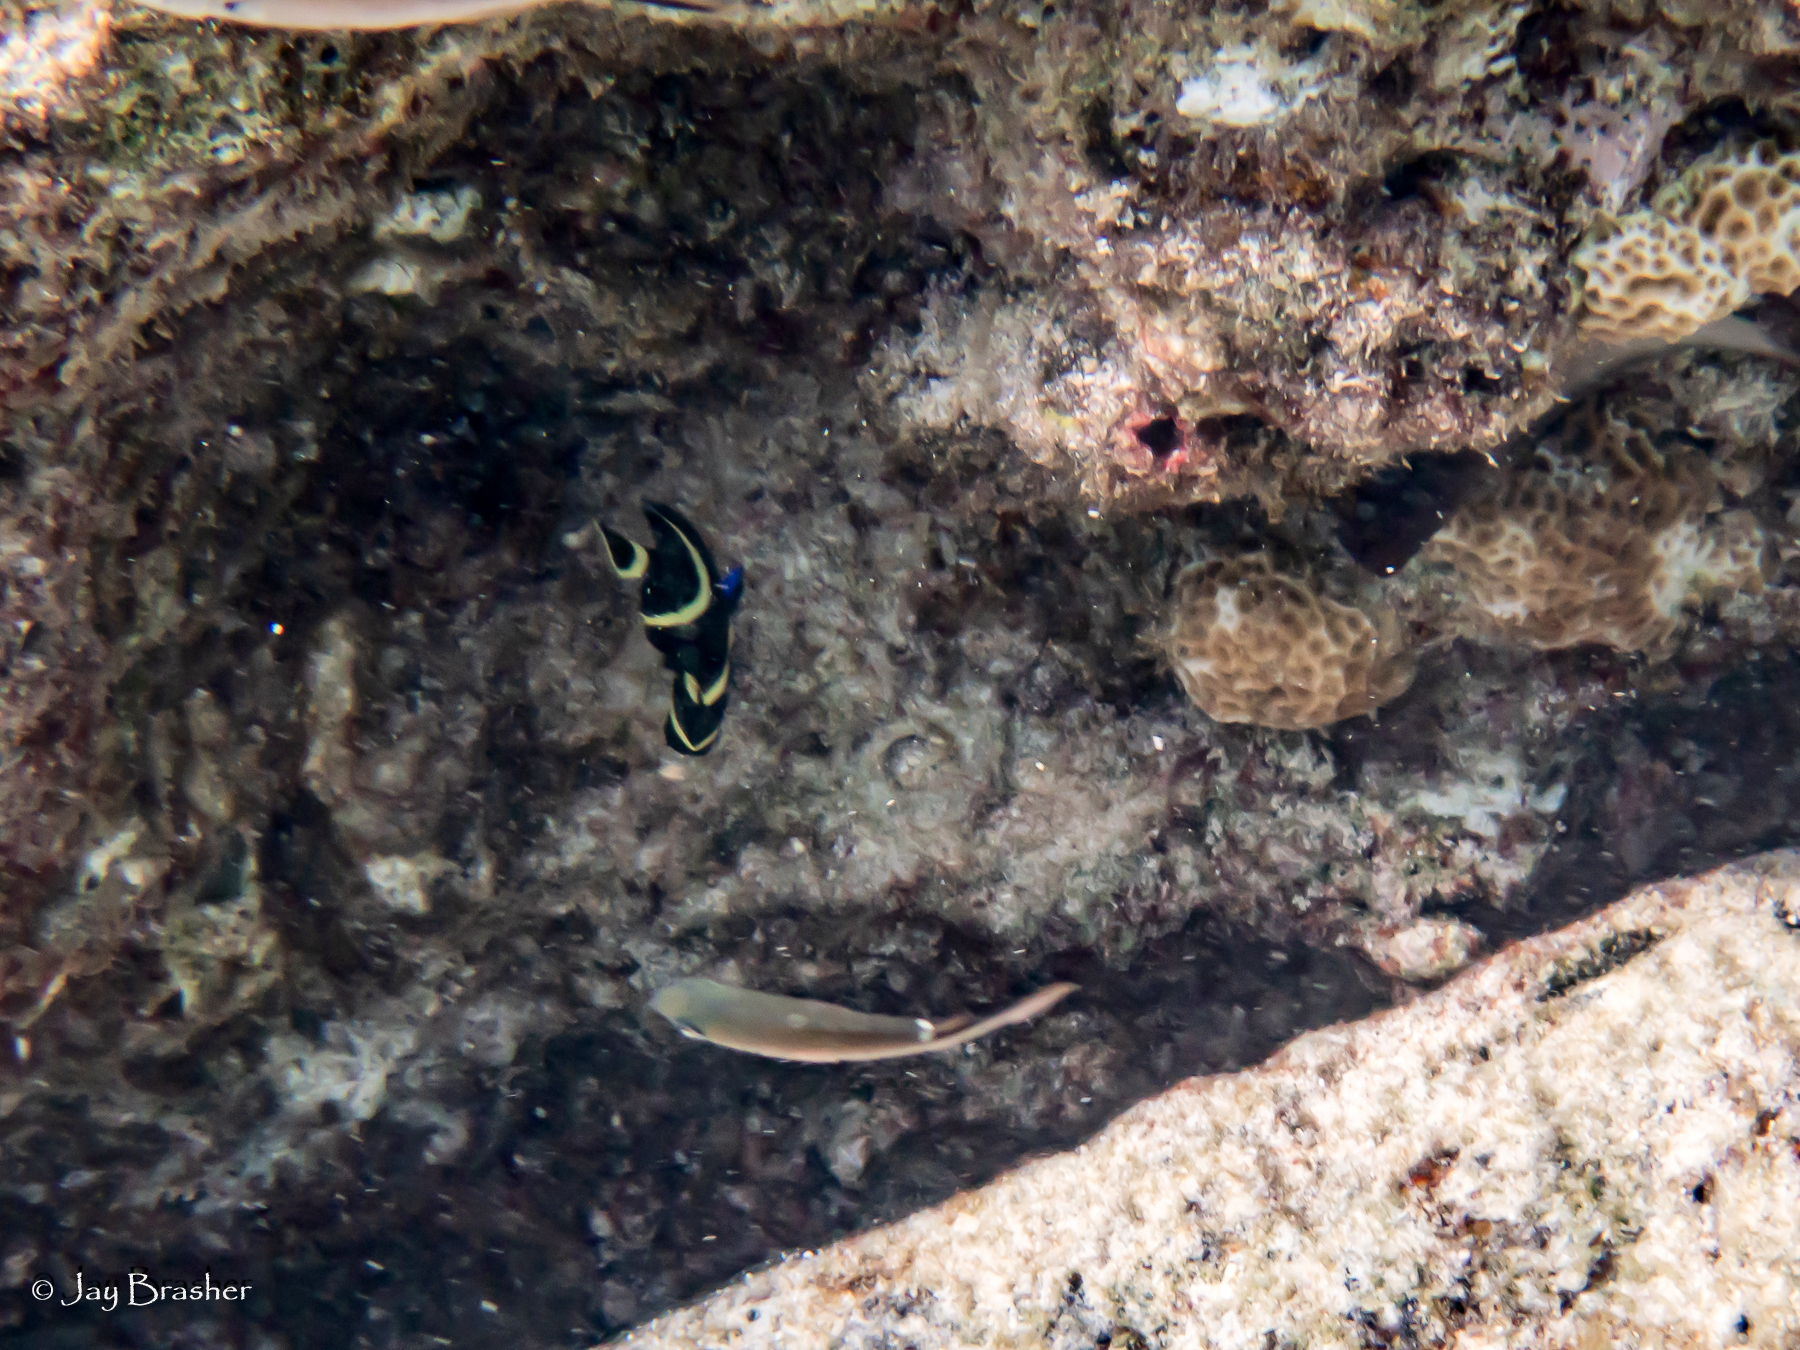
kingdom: Animalia
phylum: Chordata
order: Perciformes
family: Pomacanthidae
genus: Pomacanthus
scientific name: Pomacanthus paru
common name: French angelfish
